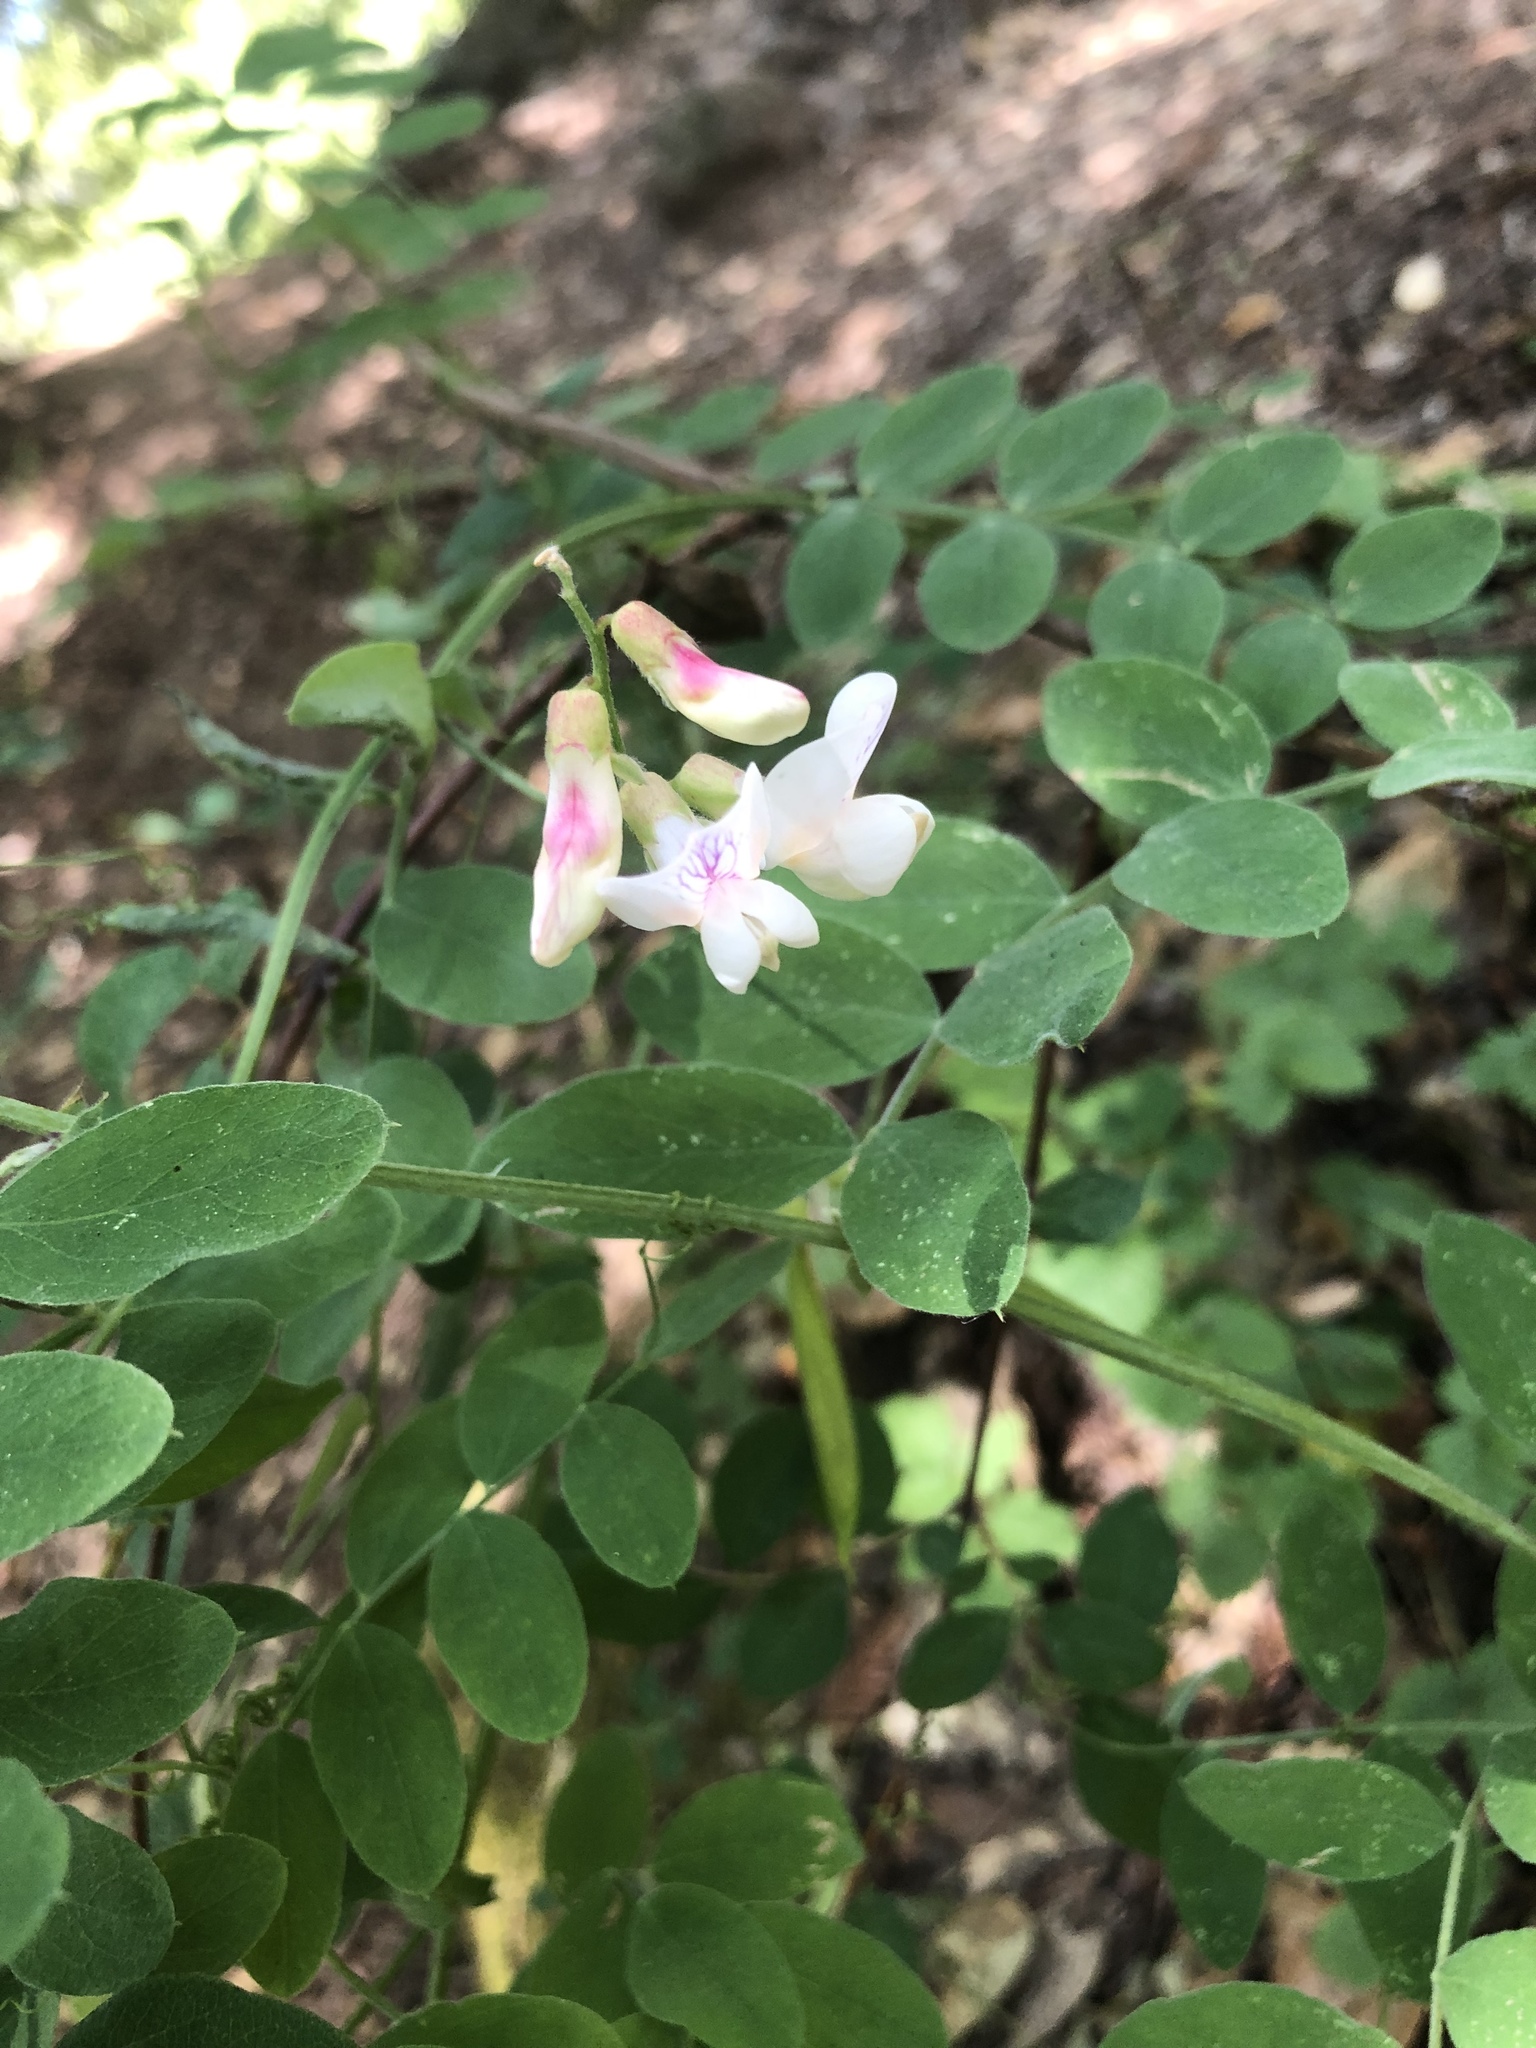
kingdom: Plantae
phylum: Tracheophyta
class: Magnoliopsida
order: Fabales
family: Fabaceae
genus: Lathyrus
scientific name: Lathyrus vestitus
